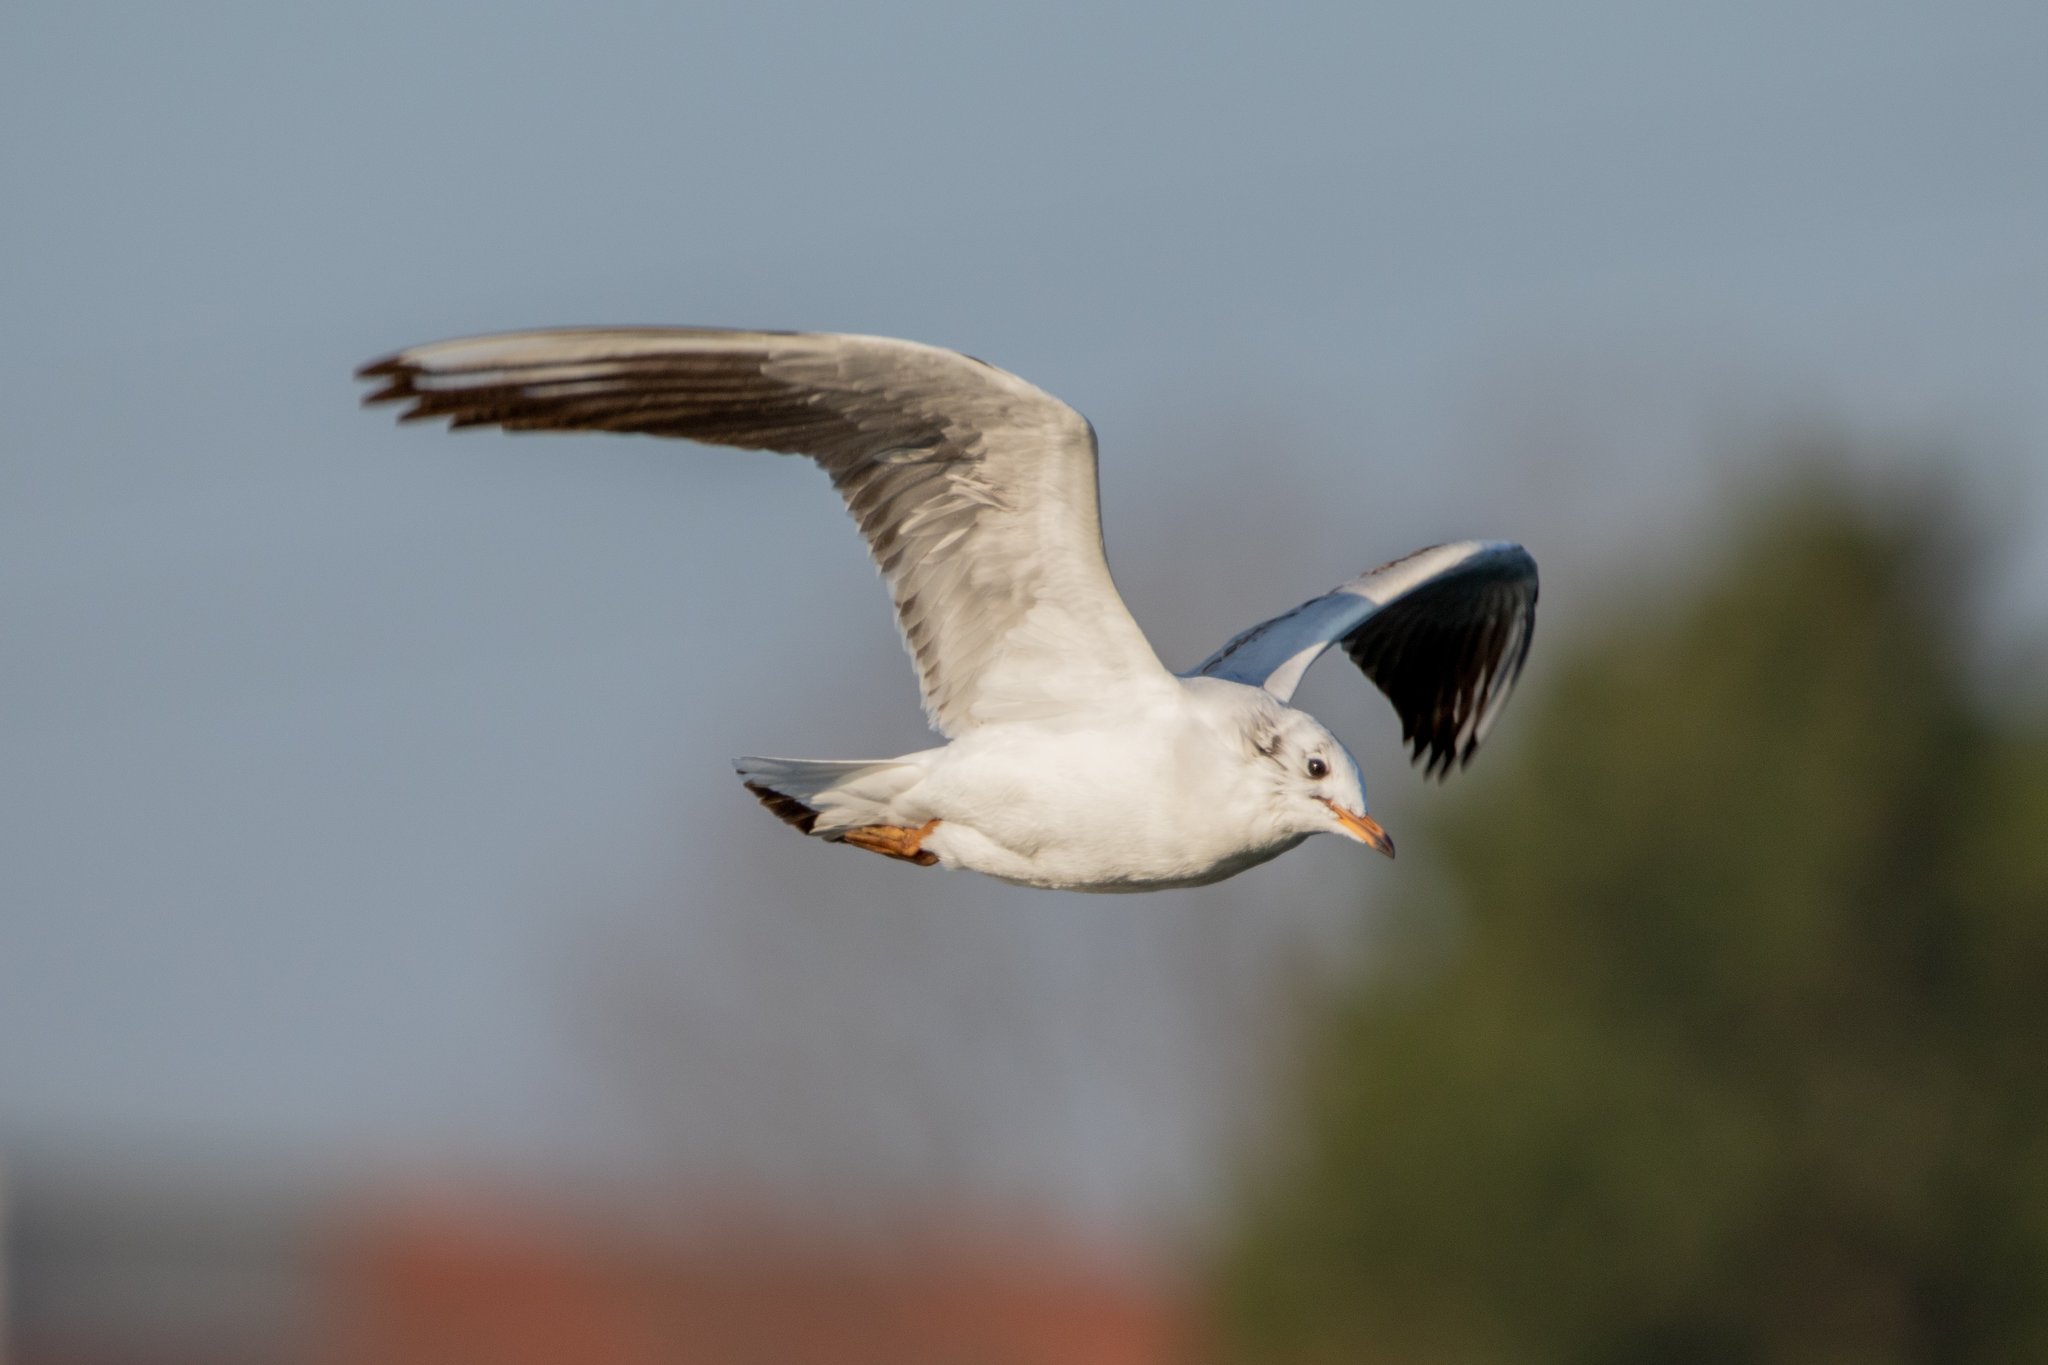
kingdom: Animalia
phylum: Chordata
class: Aves
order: Charadriiformes
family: Laridae
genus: Chroicocephalus
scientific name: Chroicocephalus ridibundus
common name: Black-headed gull
